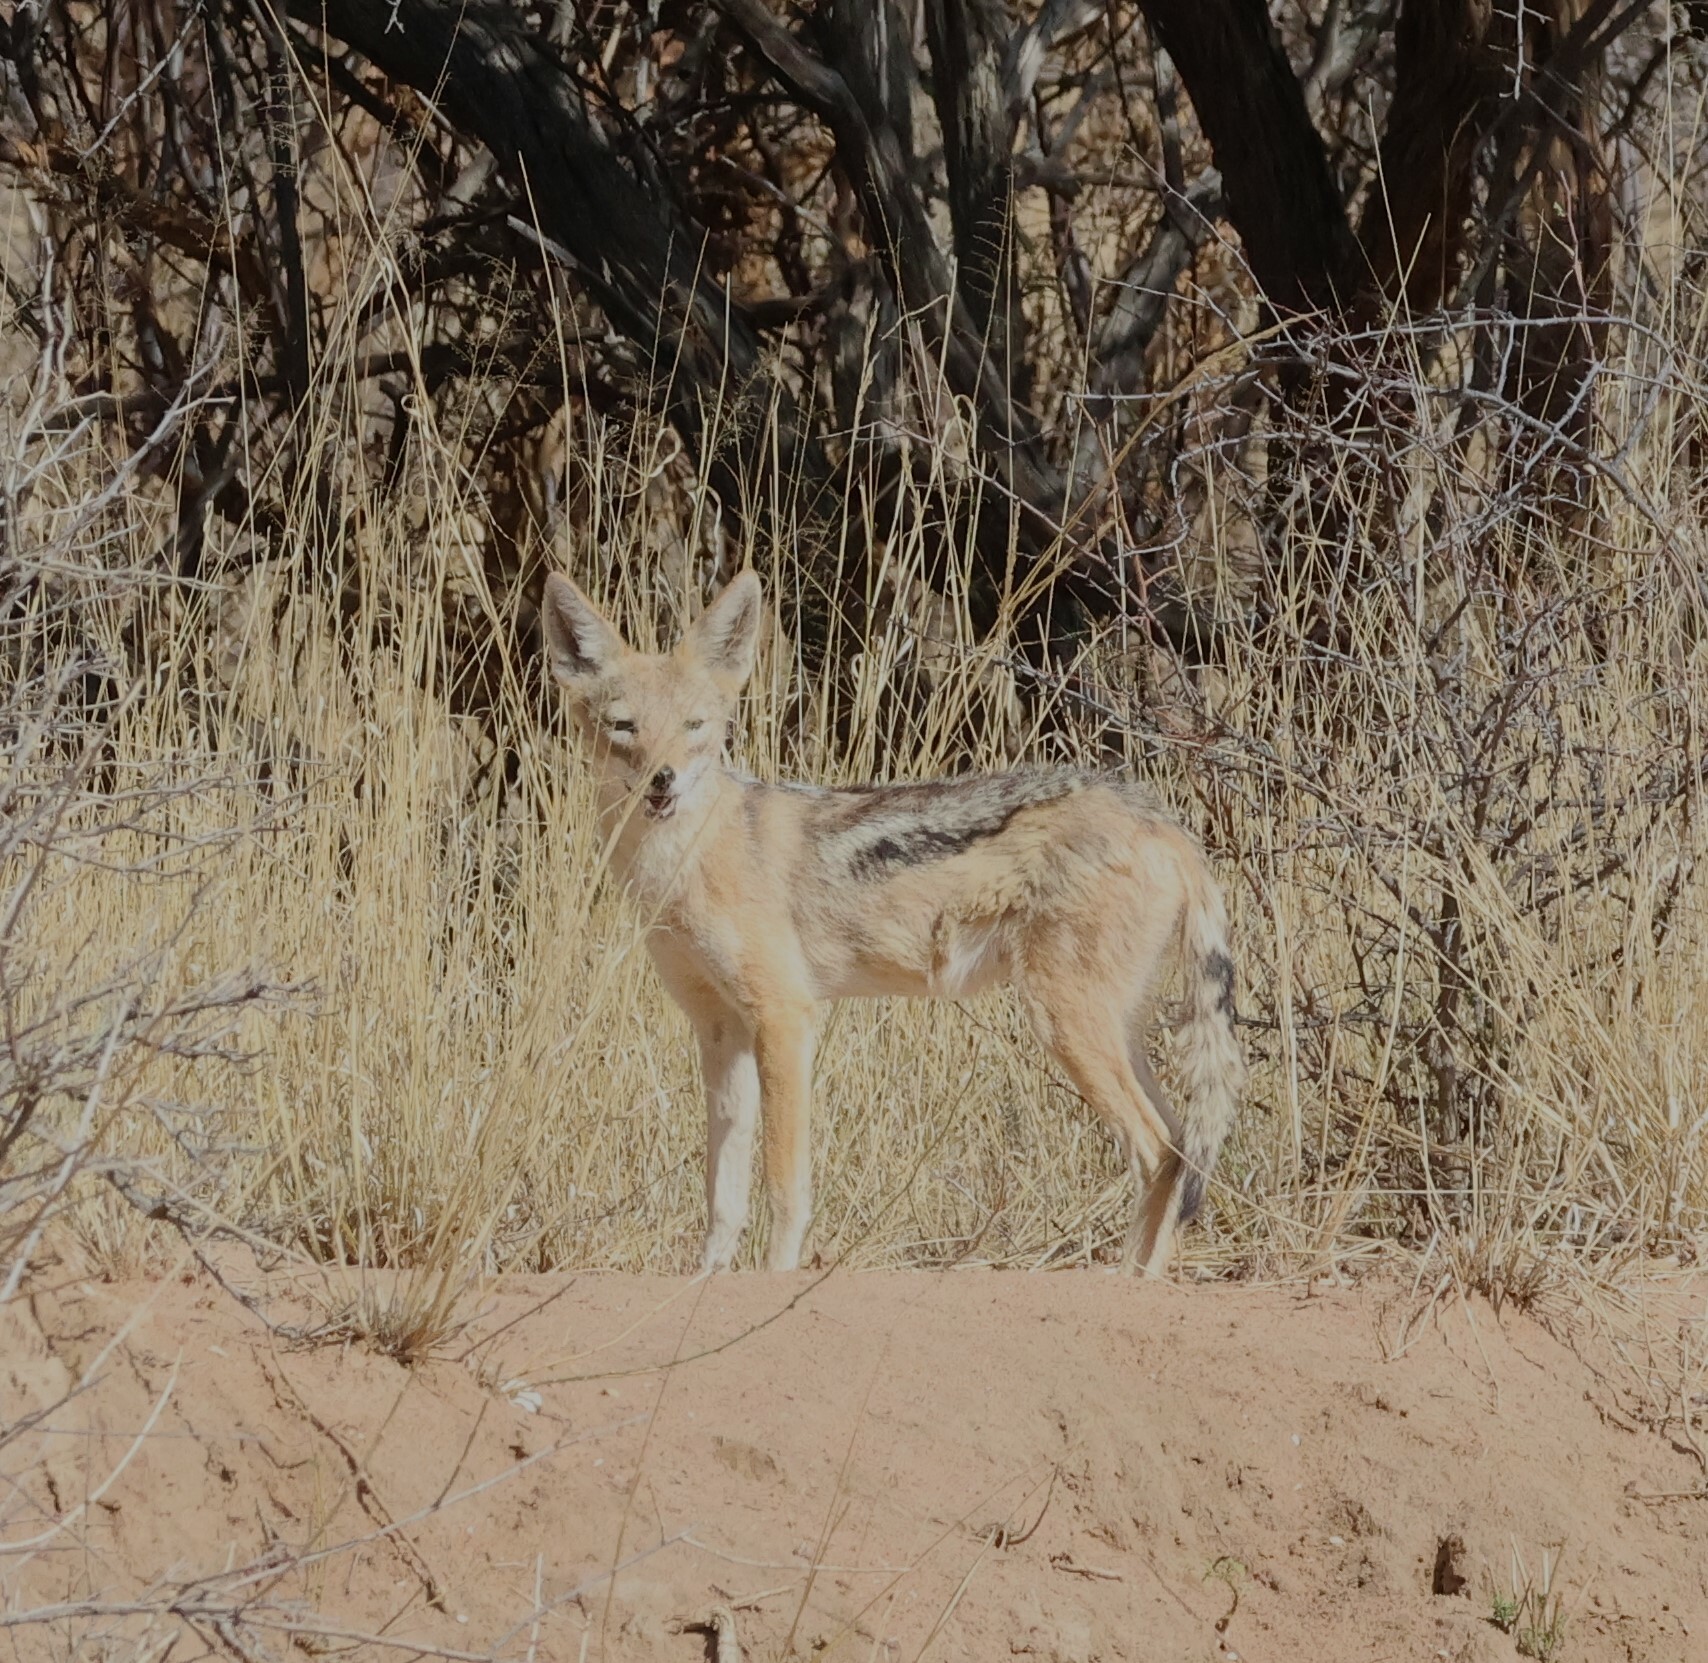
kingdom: Animalia
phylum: Chordata
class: Mammalia
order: Carnivora
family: Canidae
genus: Lupulella
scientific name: Lupulella
